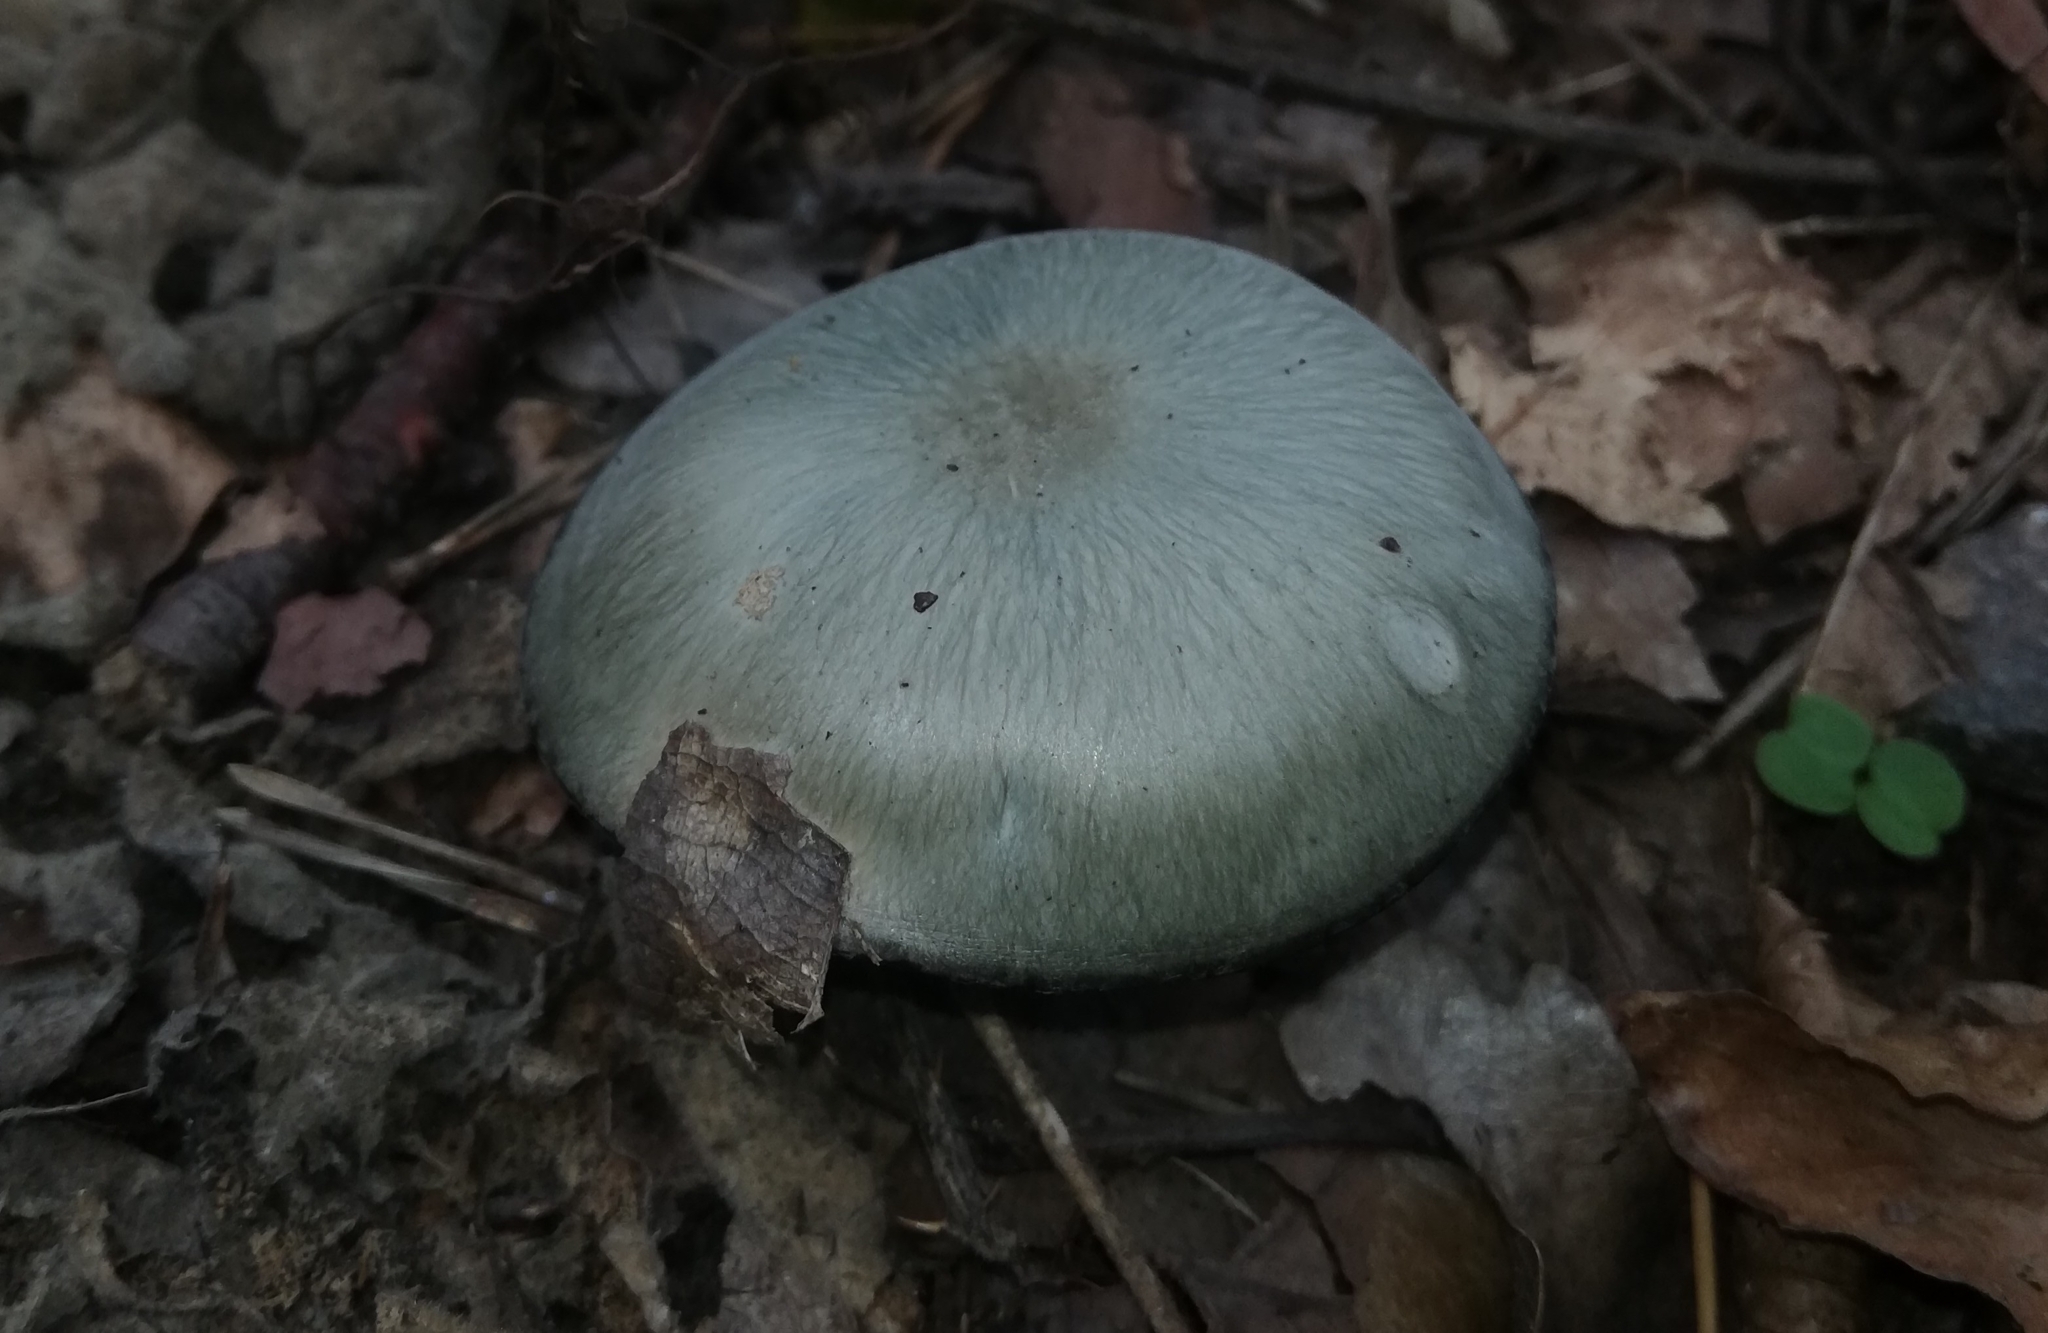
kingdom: Fungi
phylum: Basidiomycota
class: Agaricomycetes
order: Agaricales
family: Tricholomataceae
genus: Collybia
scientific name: Collybia
